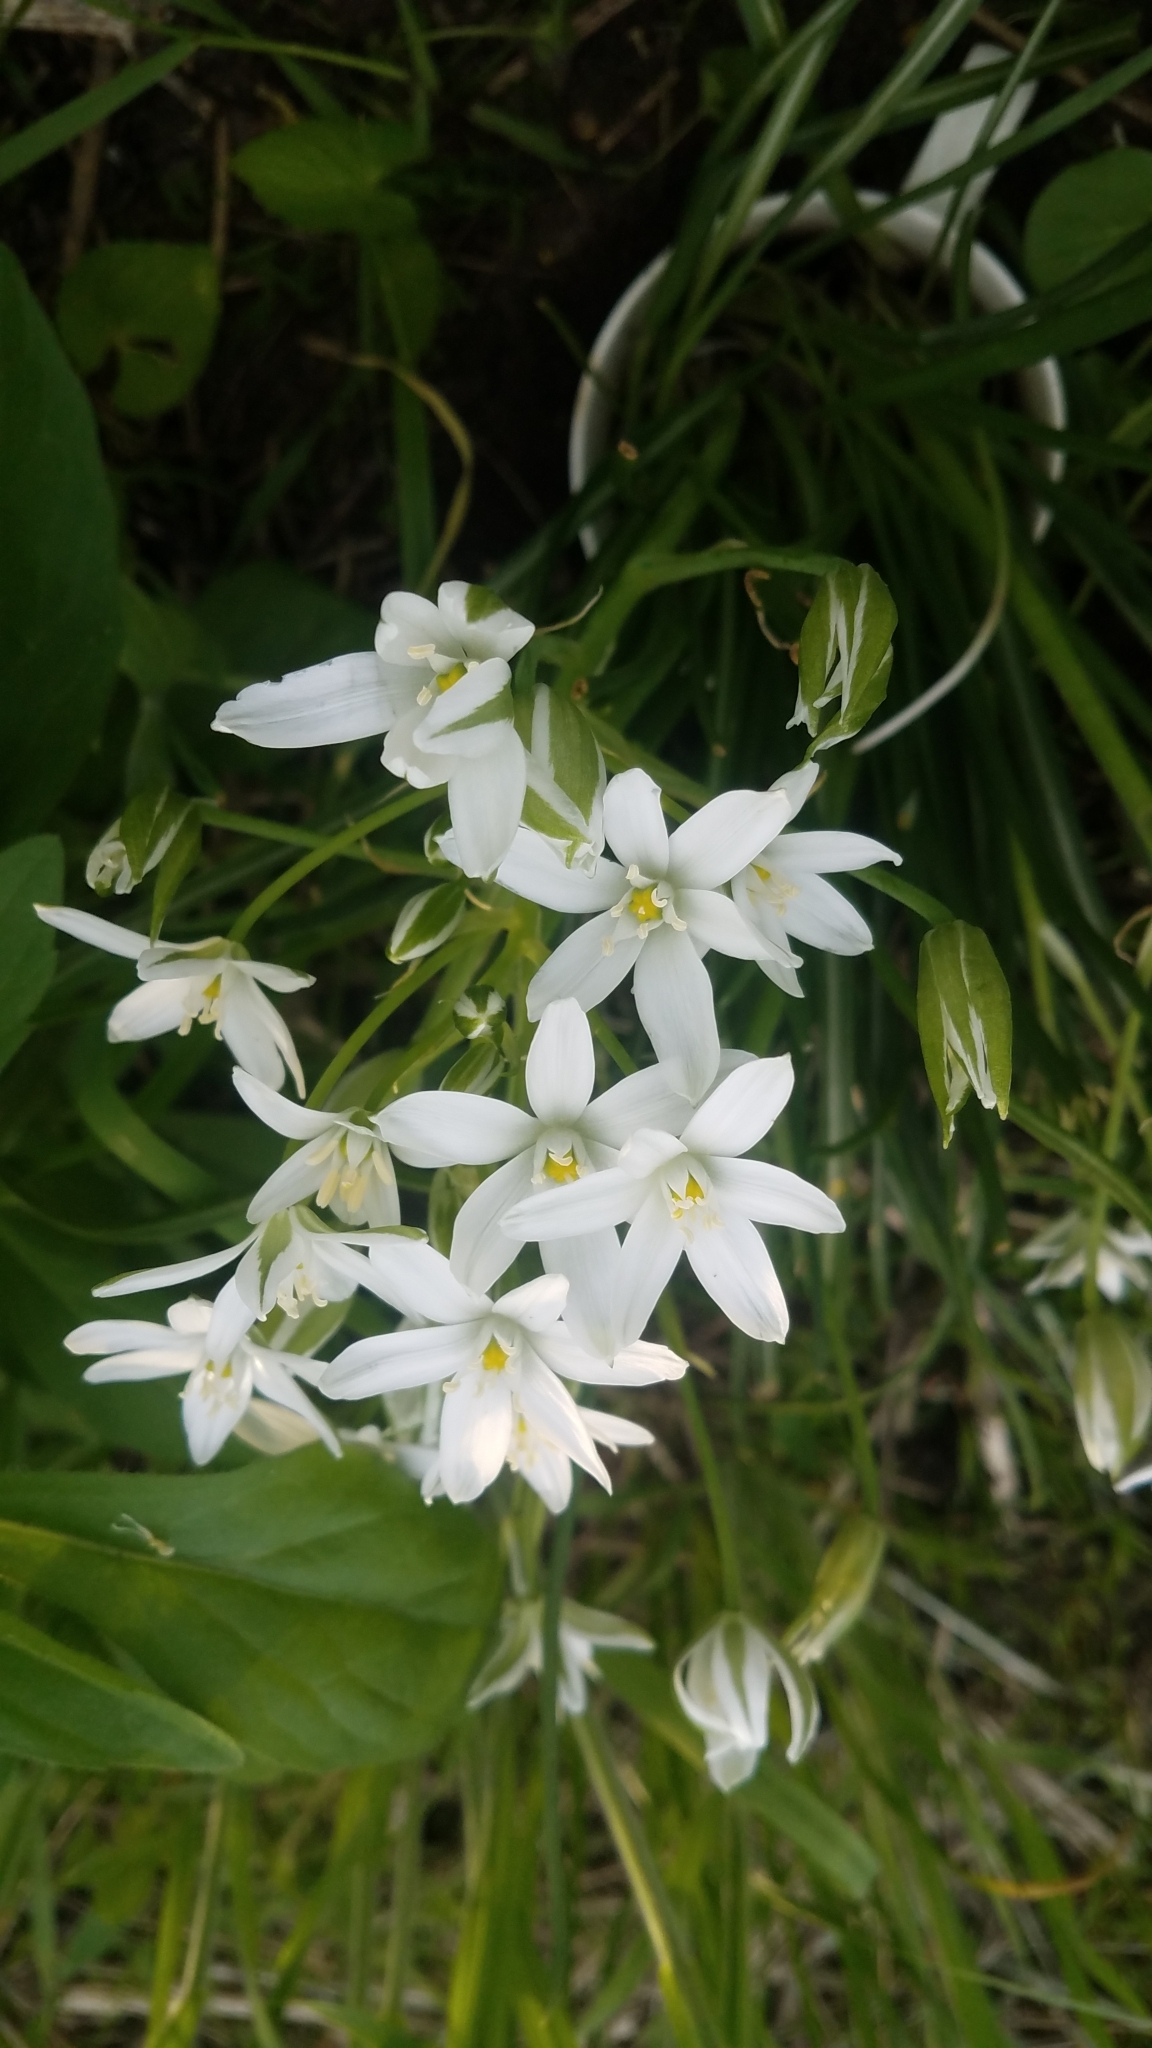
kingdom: Plantae
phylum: Tracheophyta
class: Liliopsida
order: Asparagales
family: Asparagaceae
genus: Ornithogalum
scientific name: Ornithogalum umbellatum
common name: Garden star-of-bethlehem
